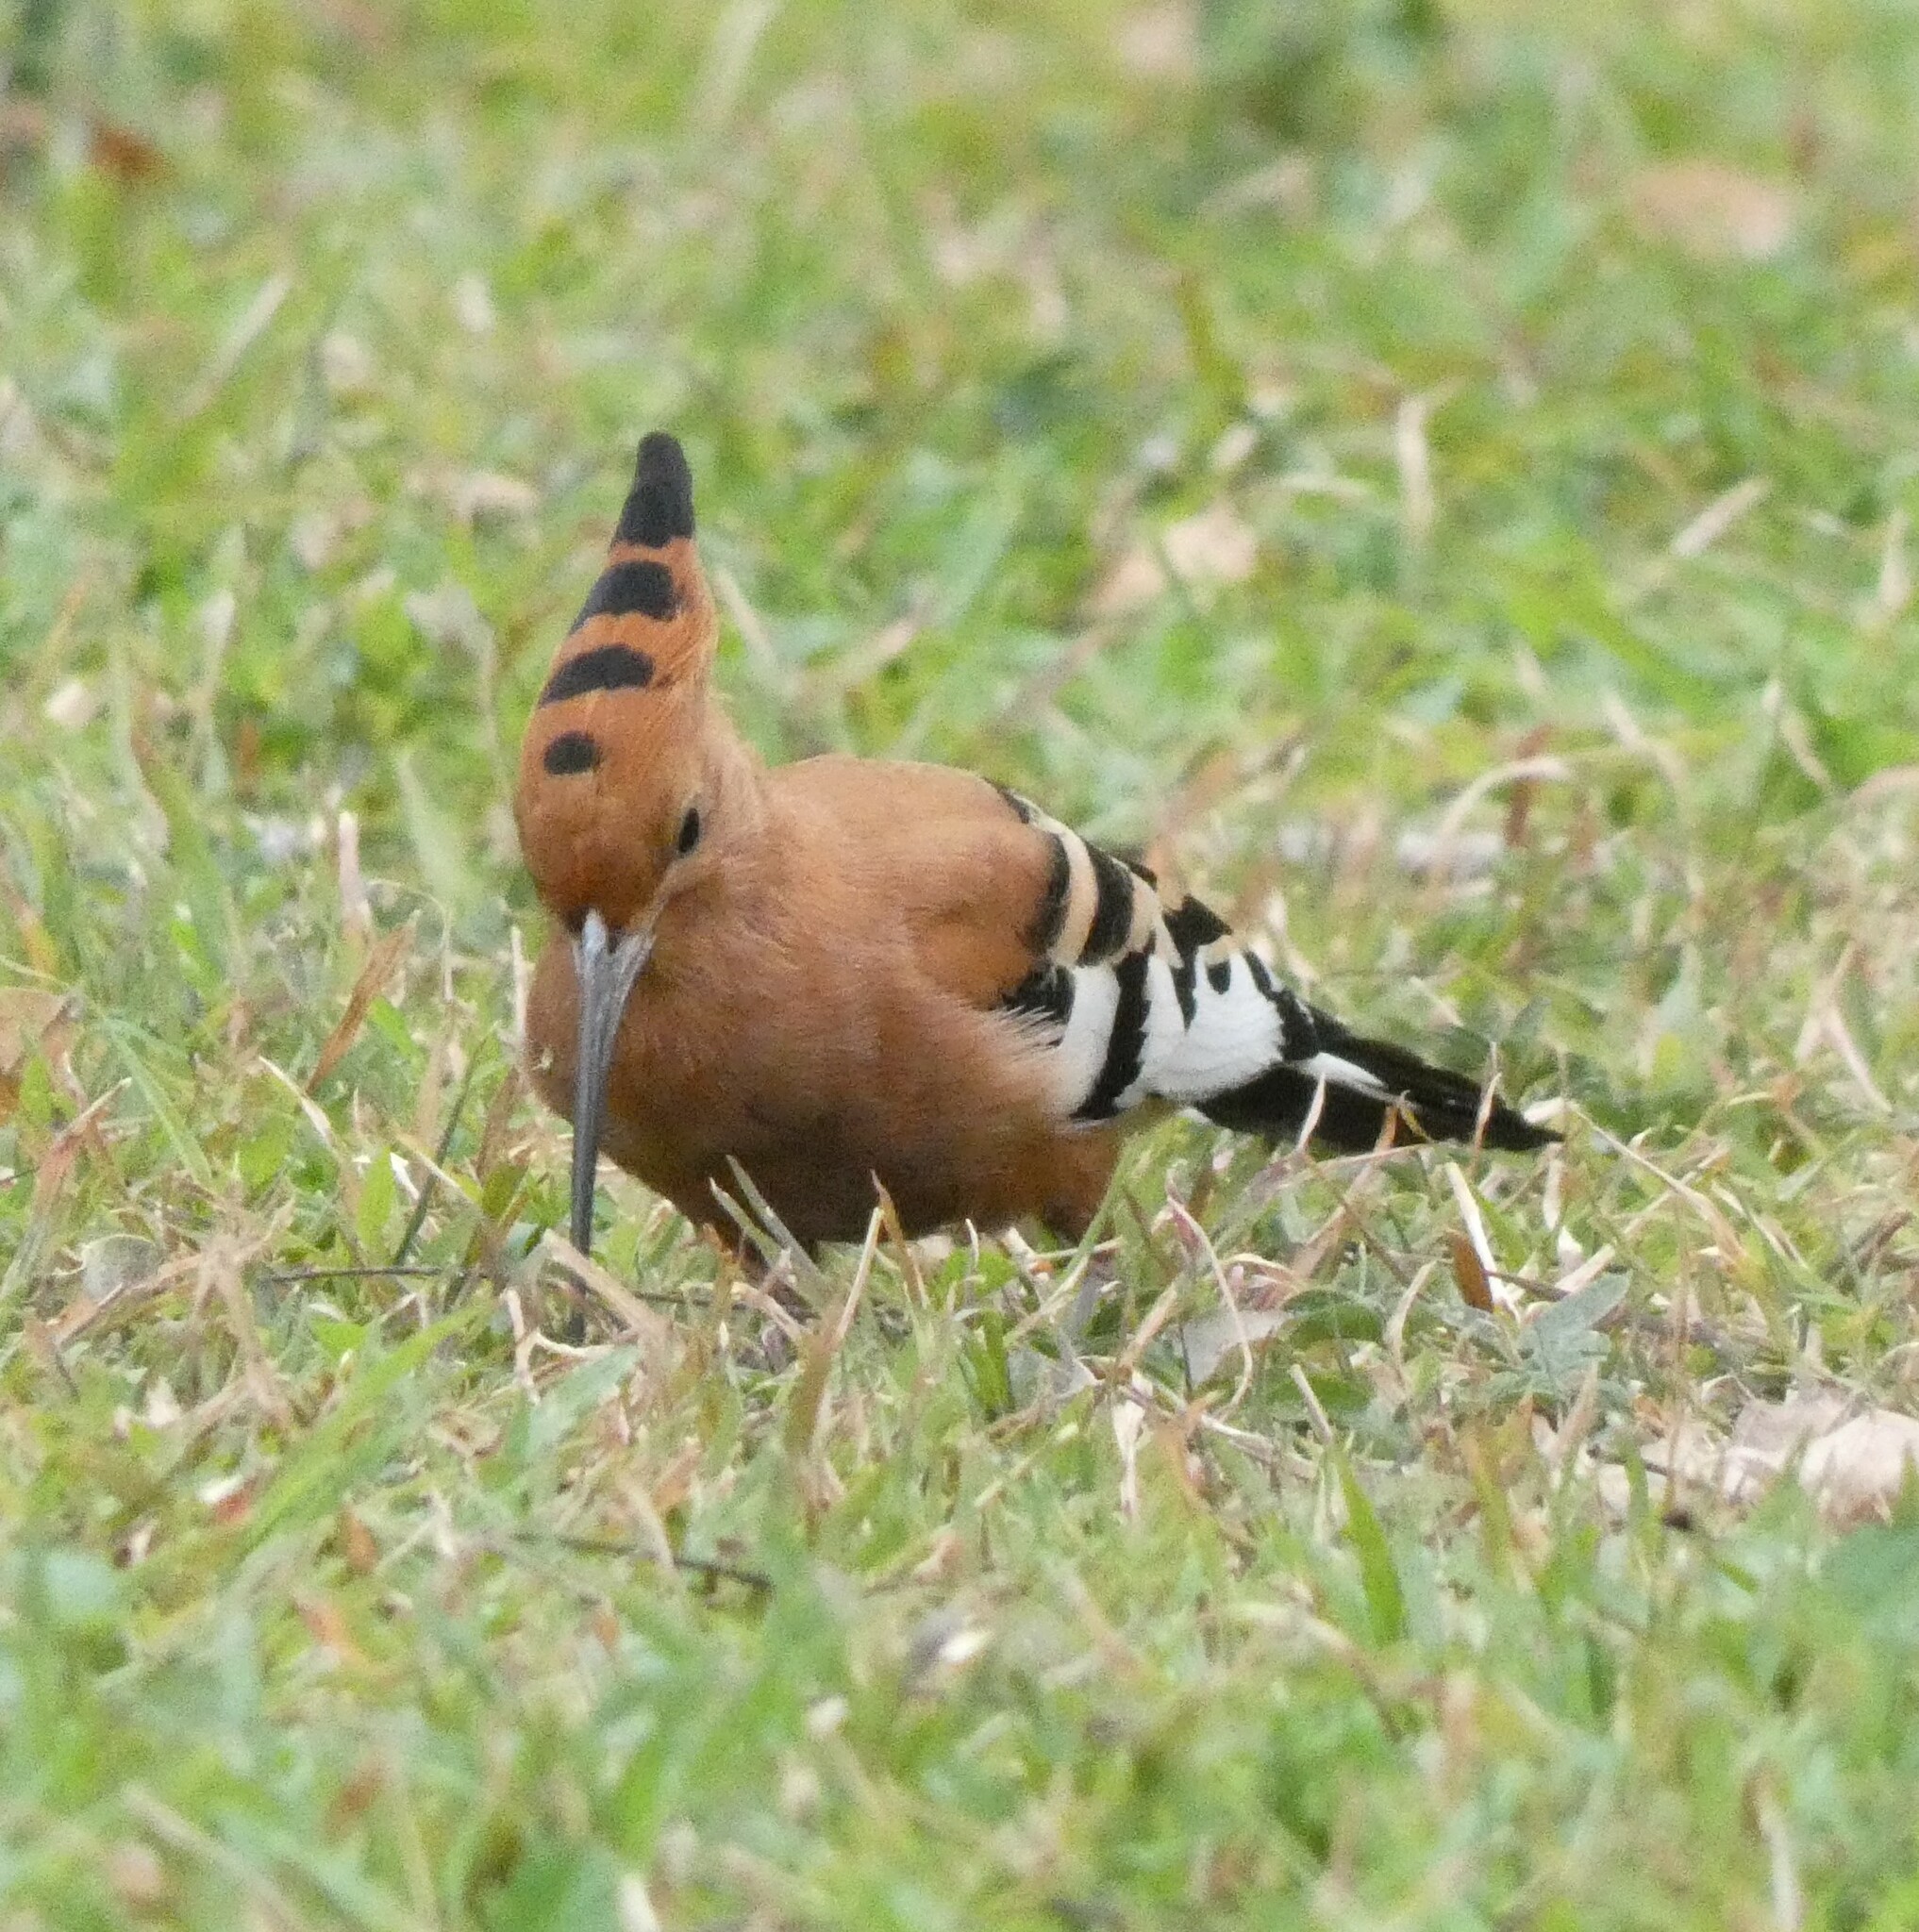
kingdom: Animalia
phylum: Chordata
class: Aves
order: Bucerotiformes
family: Upupidae
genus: Upupa
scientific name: Upupa africana
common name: African hoopoe
